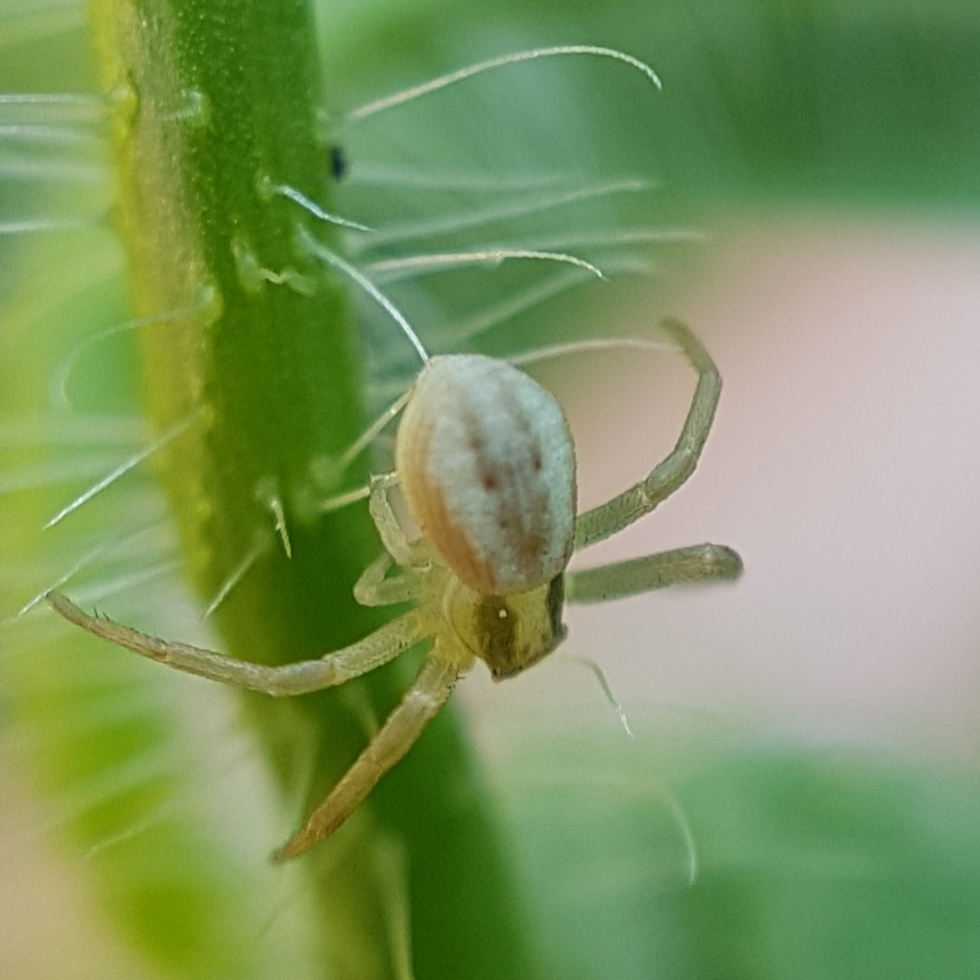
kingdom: Animalia
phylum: Arthropoda
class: Arachnida
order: Araneae
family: Thomisidae
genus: Runcinia
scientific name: Runcinia grammica
